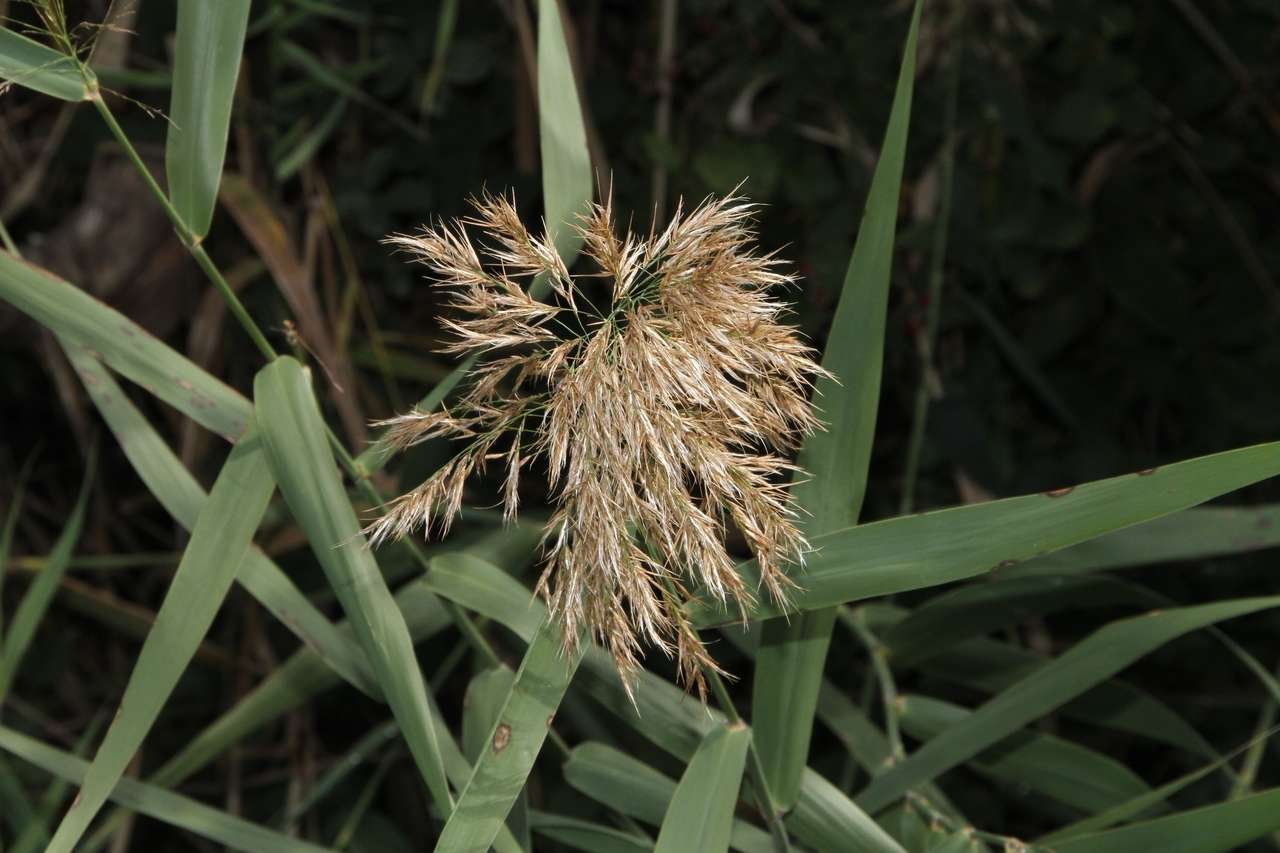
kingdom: Plantae
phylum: Tracheophyta
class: Liliopsida
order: Poales
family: Poaceae
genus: Phragmites
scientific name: Phragmites australis
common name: Common reed
